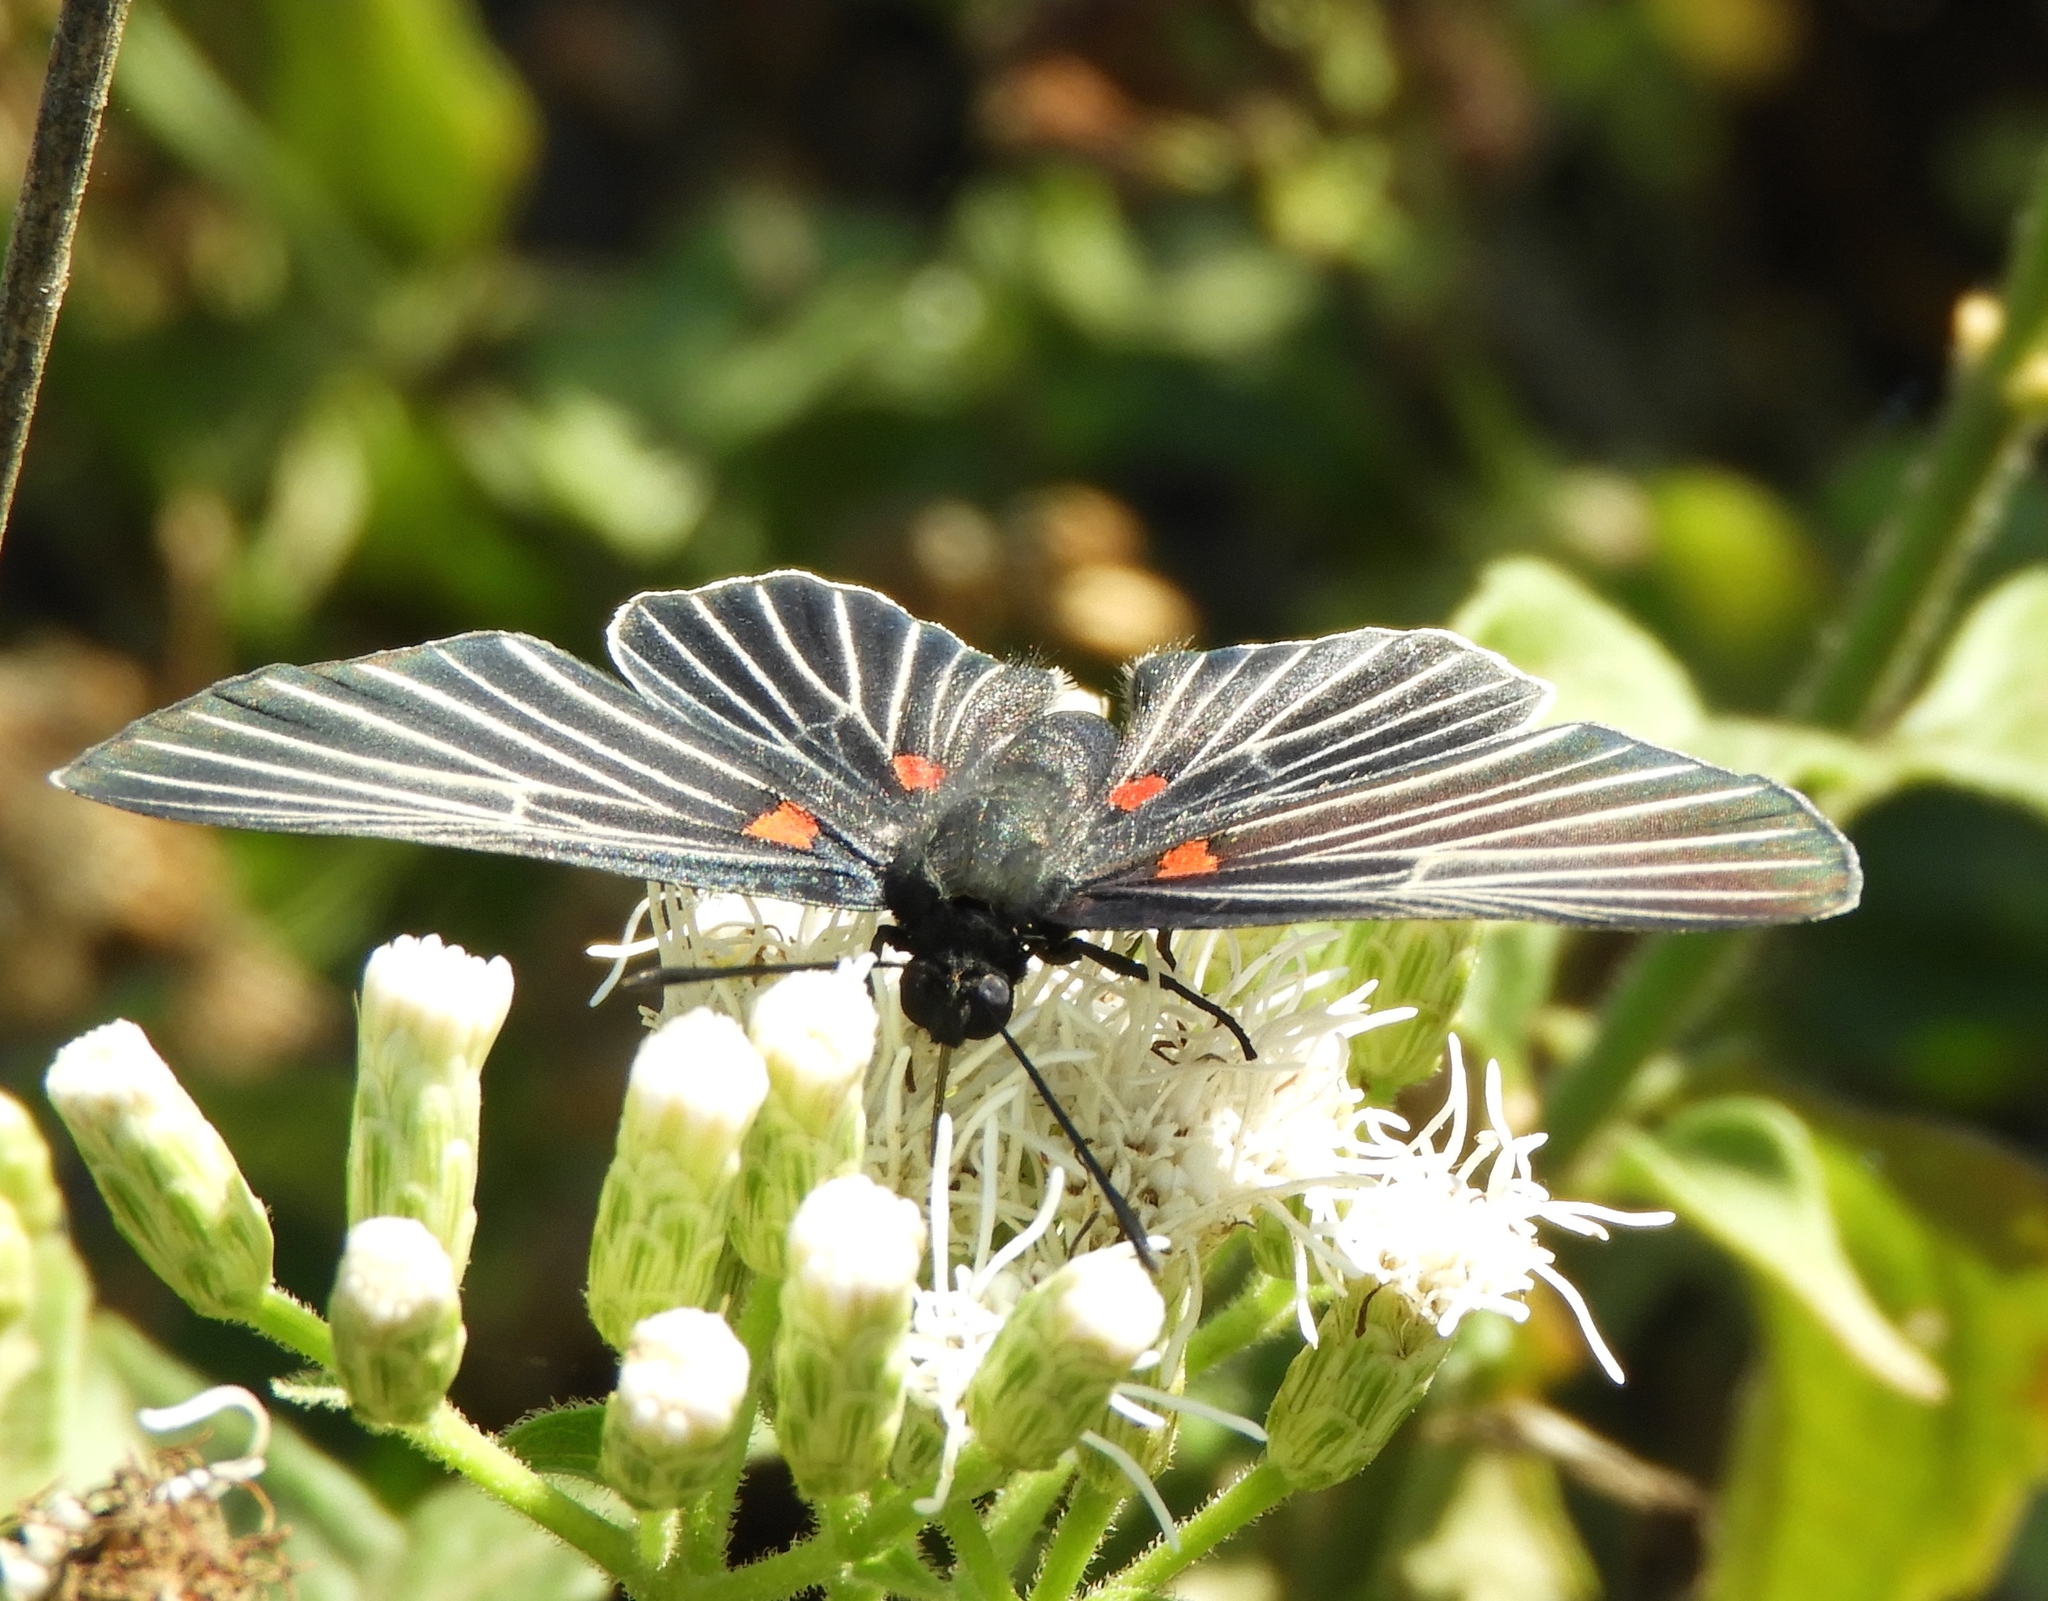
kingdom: Animalia
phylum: Arthropoda
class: Insecta
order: Lepidoptera
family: Lycaenidae
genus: Melanis
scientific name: Melanis
